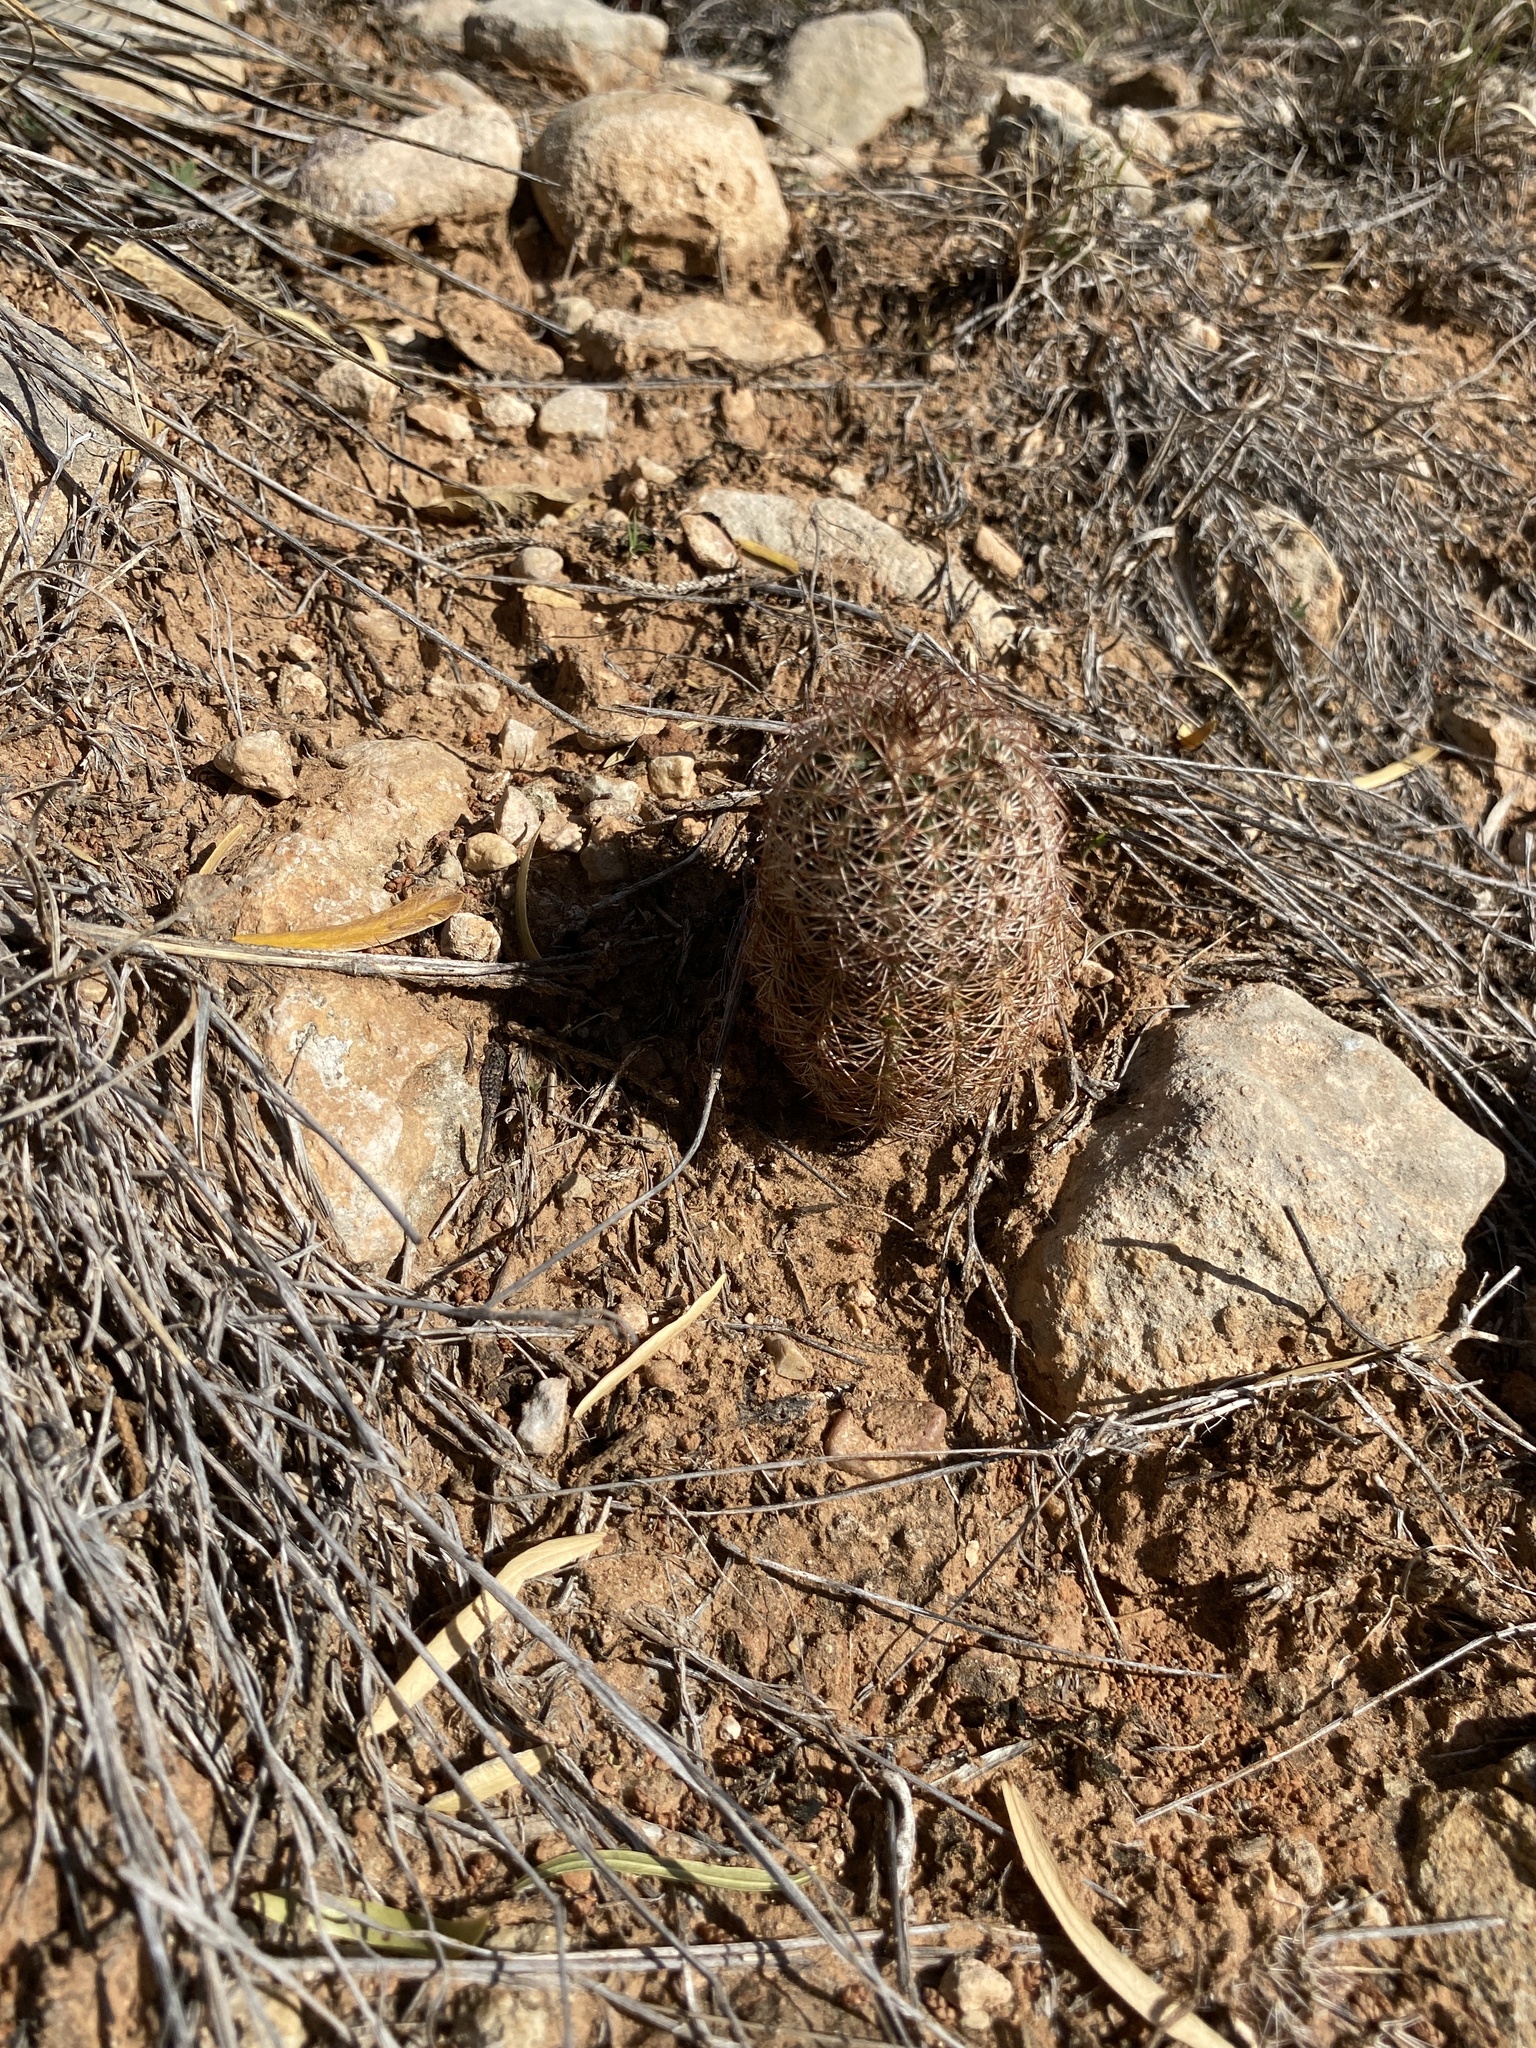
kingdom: Plantae
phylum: Tracheophyta
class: Magnoliopsida
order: Caryophyllales
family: Cactaceae
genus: Echinocereus
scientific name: Echinocereus reichenbachii
